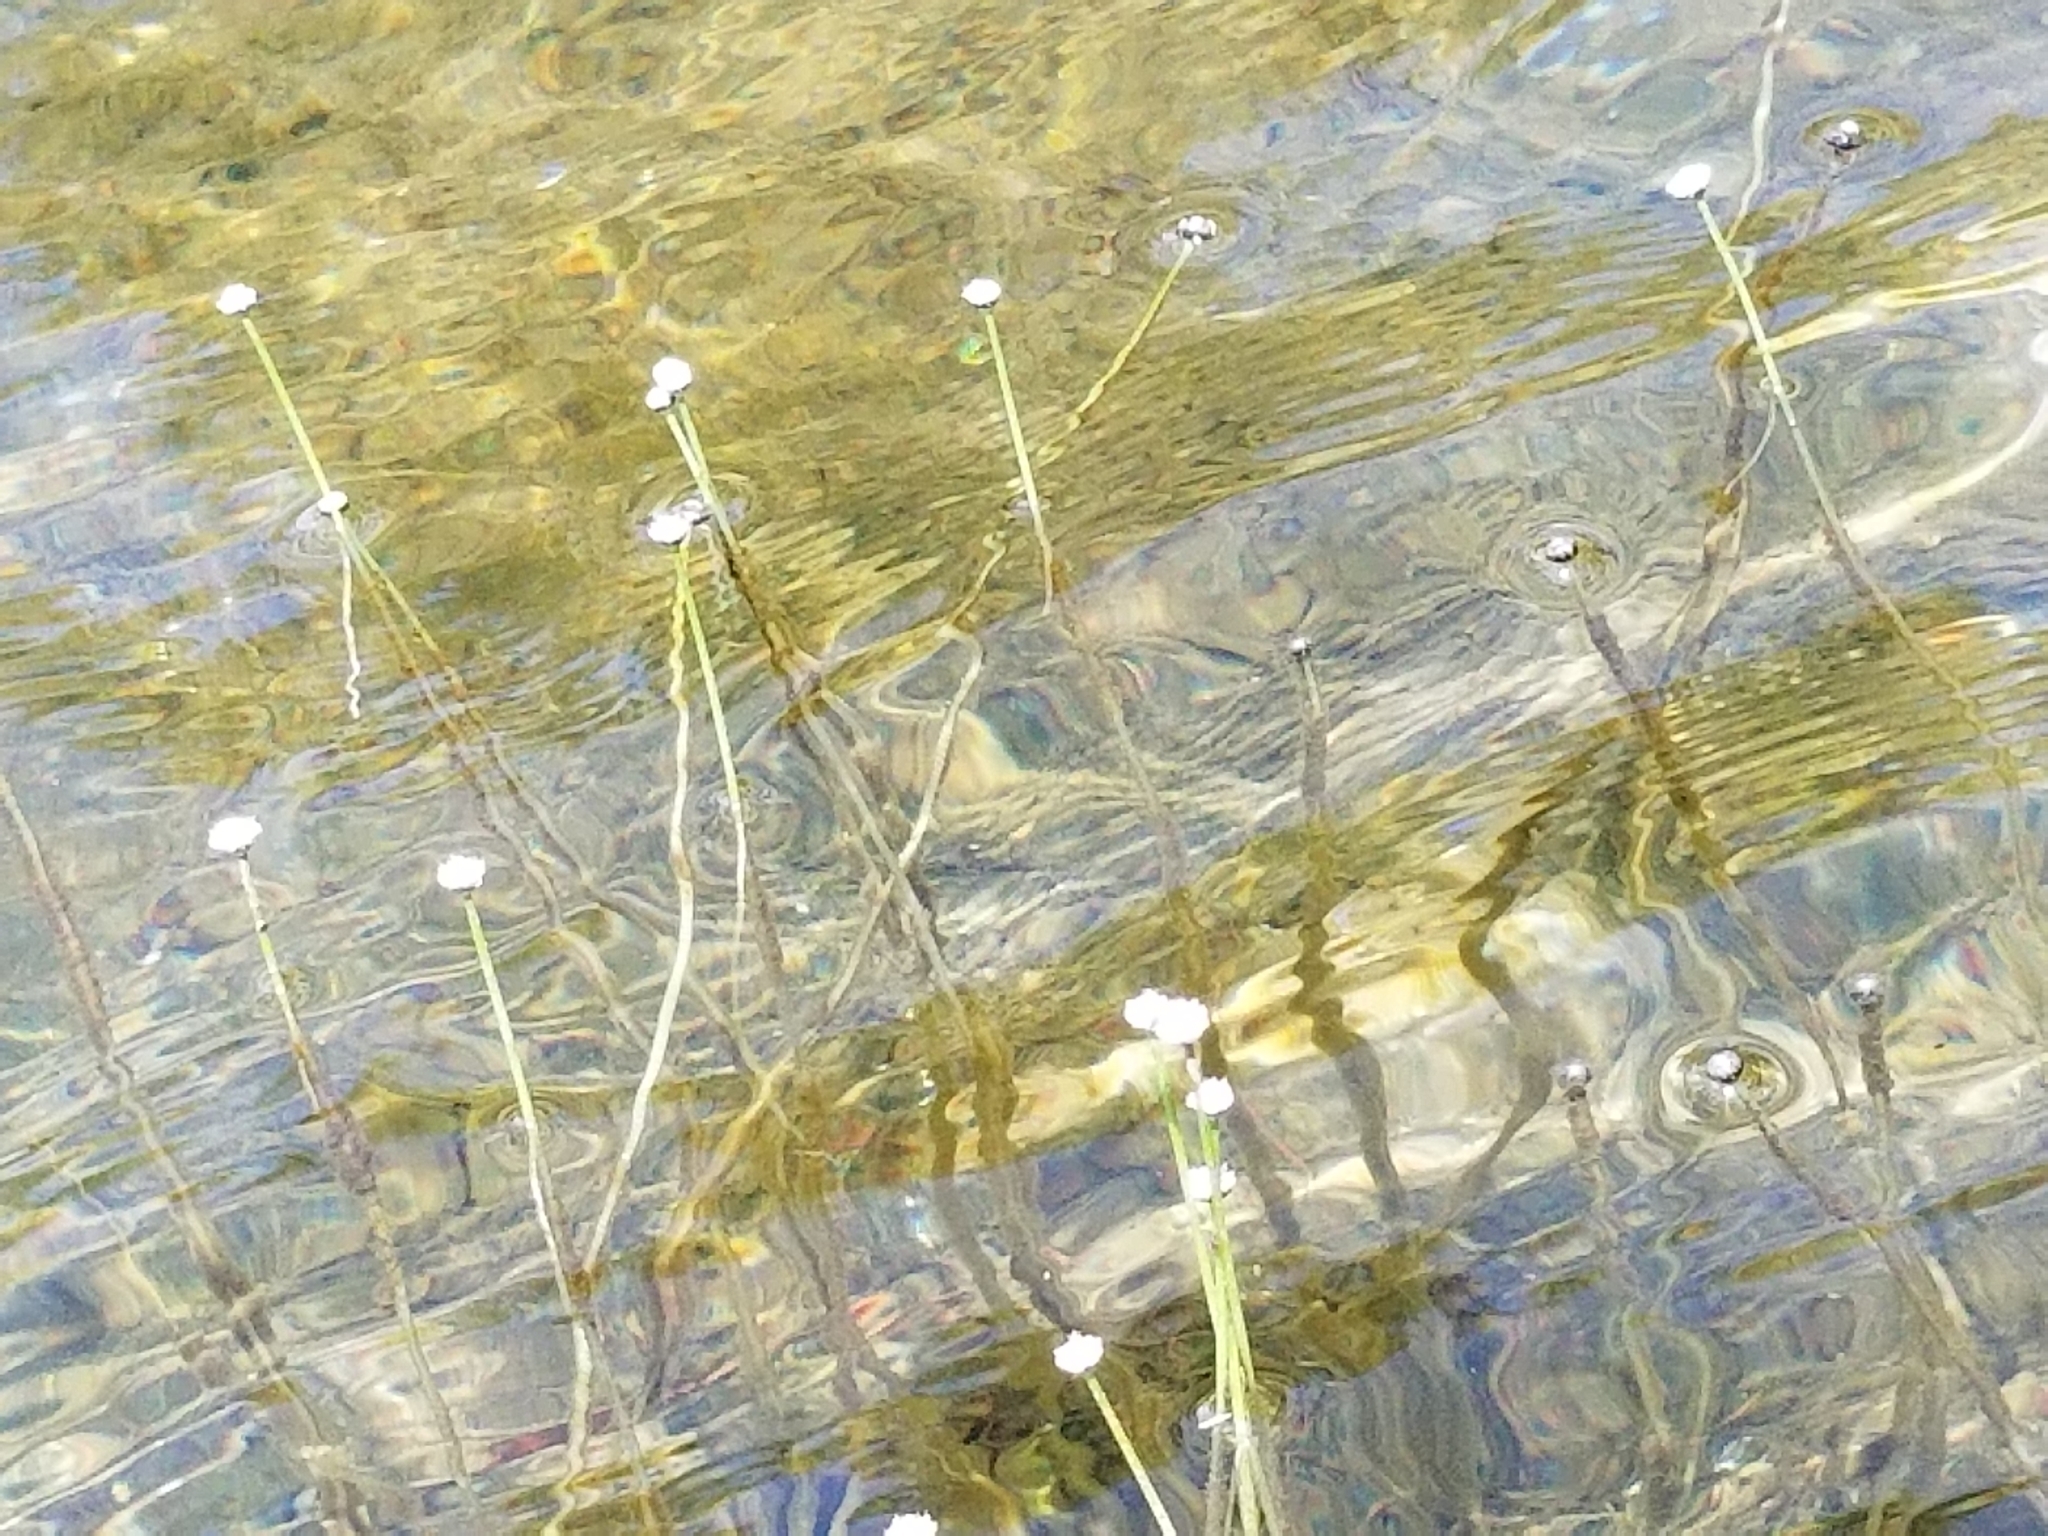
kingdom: Plantae
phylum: Tracheophyta
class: Liliopsida
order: Poales
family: Eriocaulaceae
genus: Eriocaulon
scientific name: Eriocaulon aquaticum
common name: Pipewort
